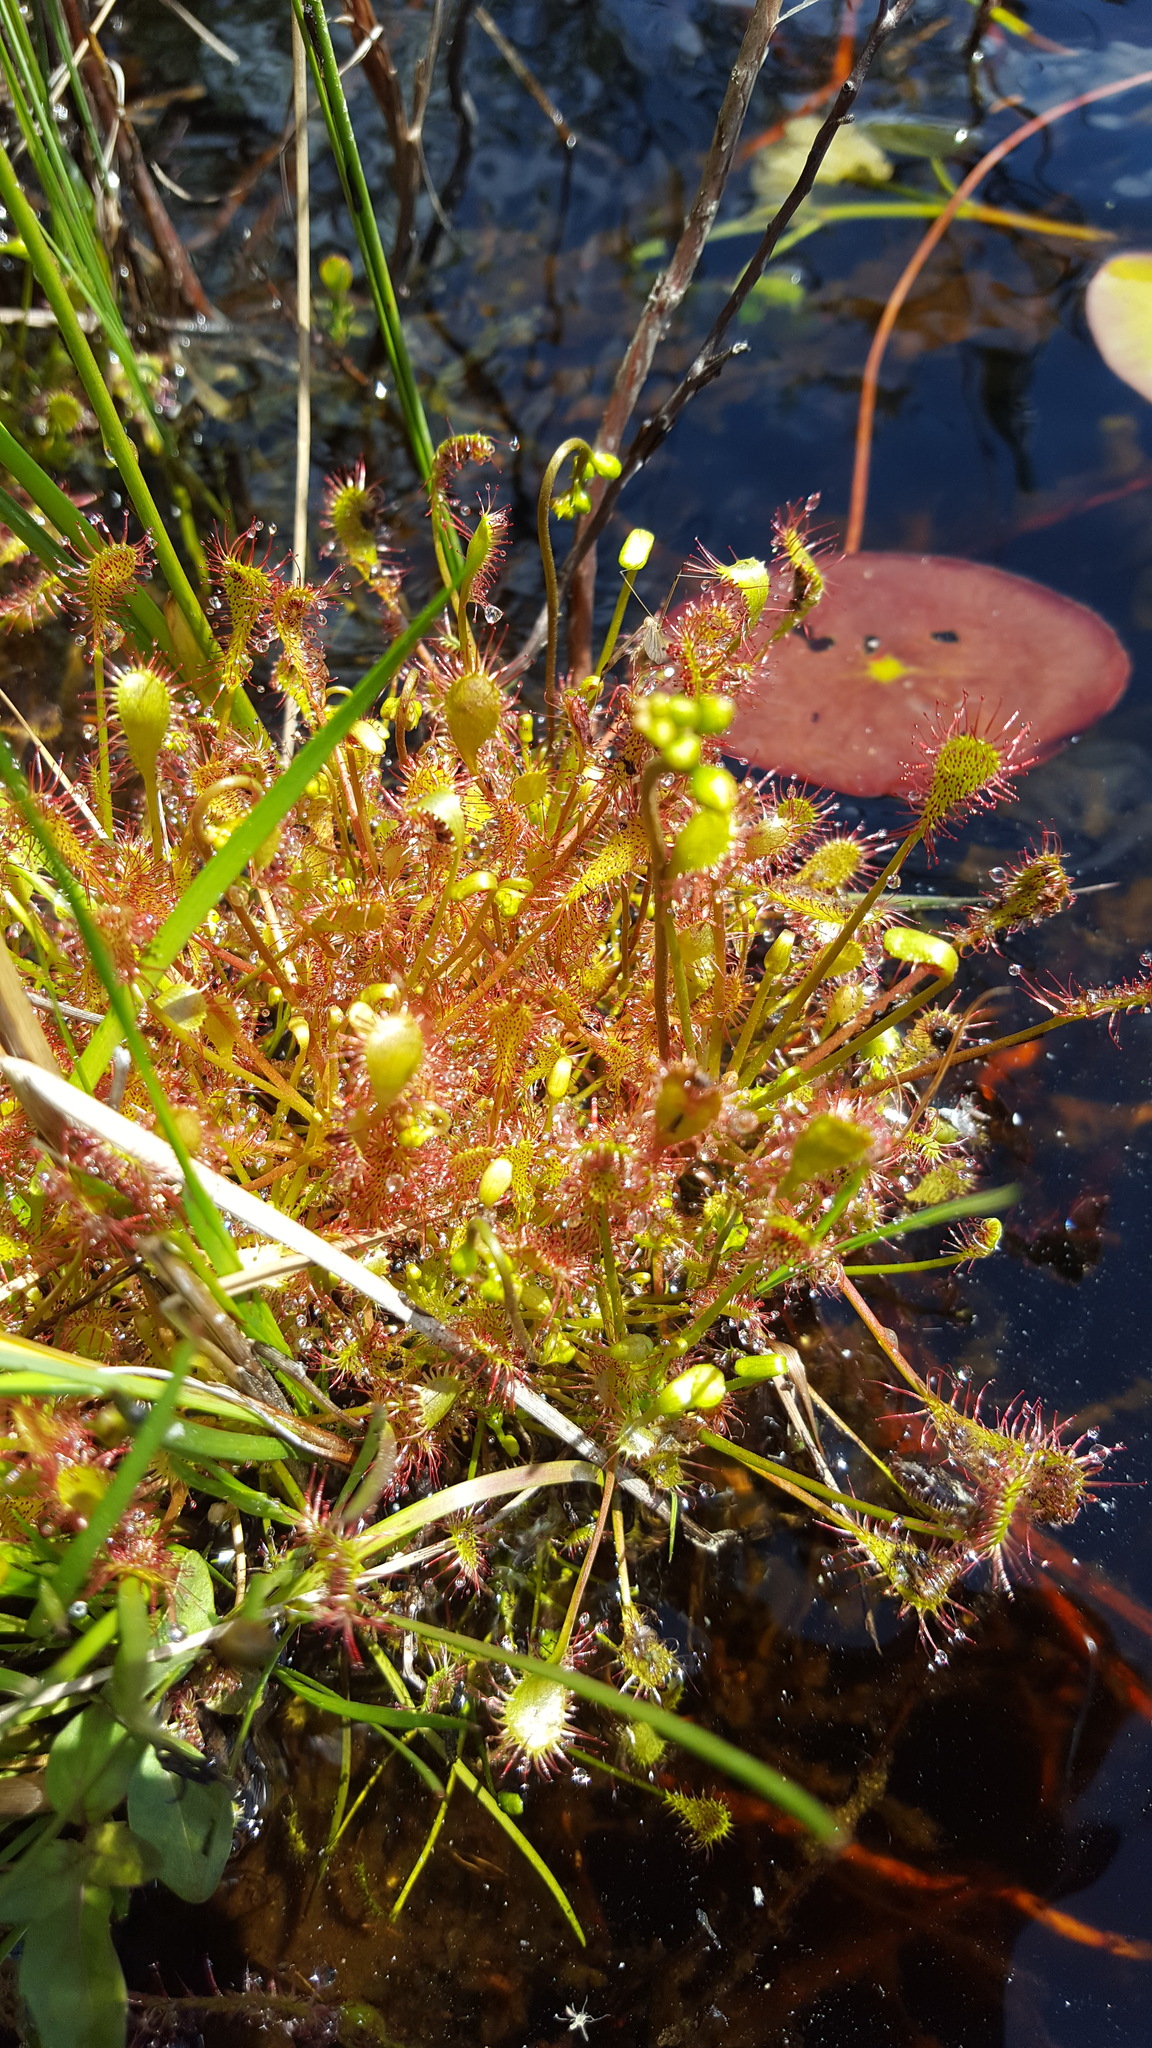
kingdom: Plantae
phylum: Tracheophyta
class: Magnoliopsida
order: Caryophyllales
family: Droseraceae
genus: Drosera
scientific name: Drosera intermedia
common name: Oblong-leaved sundew
